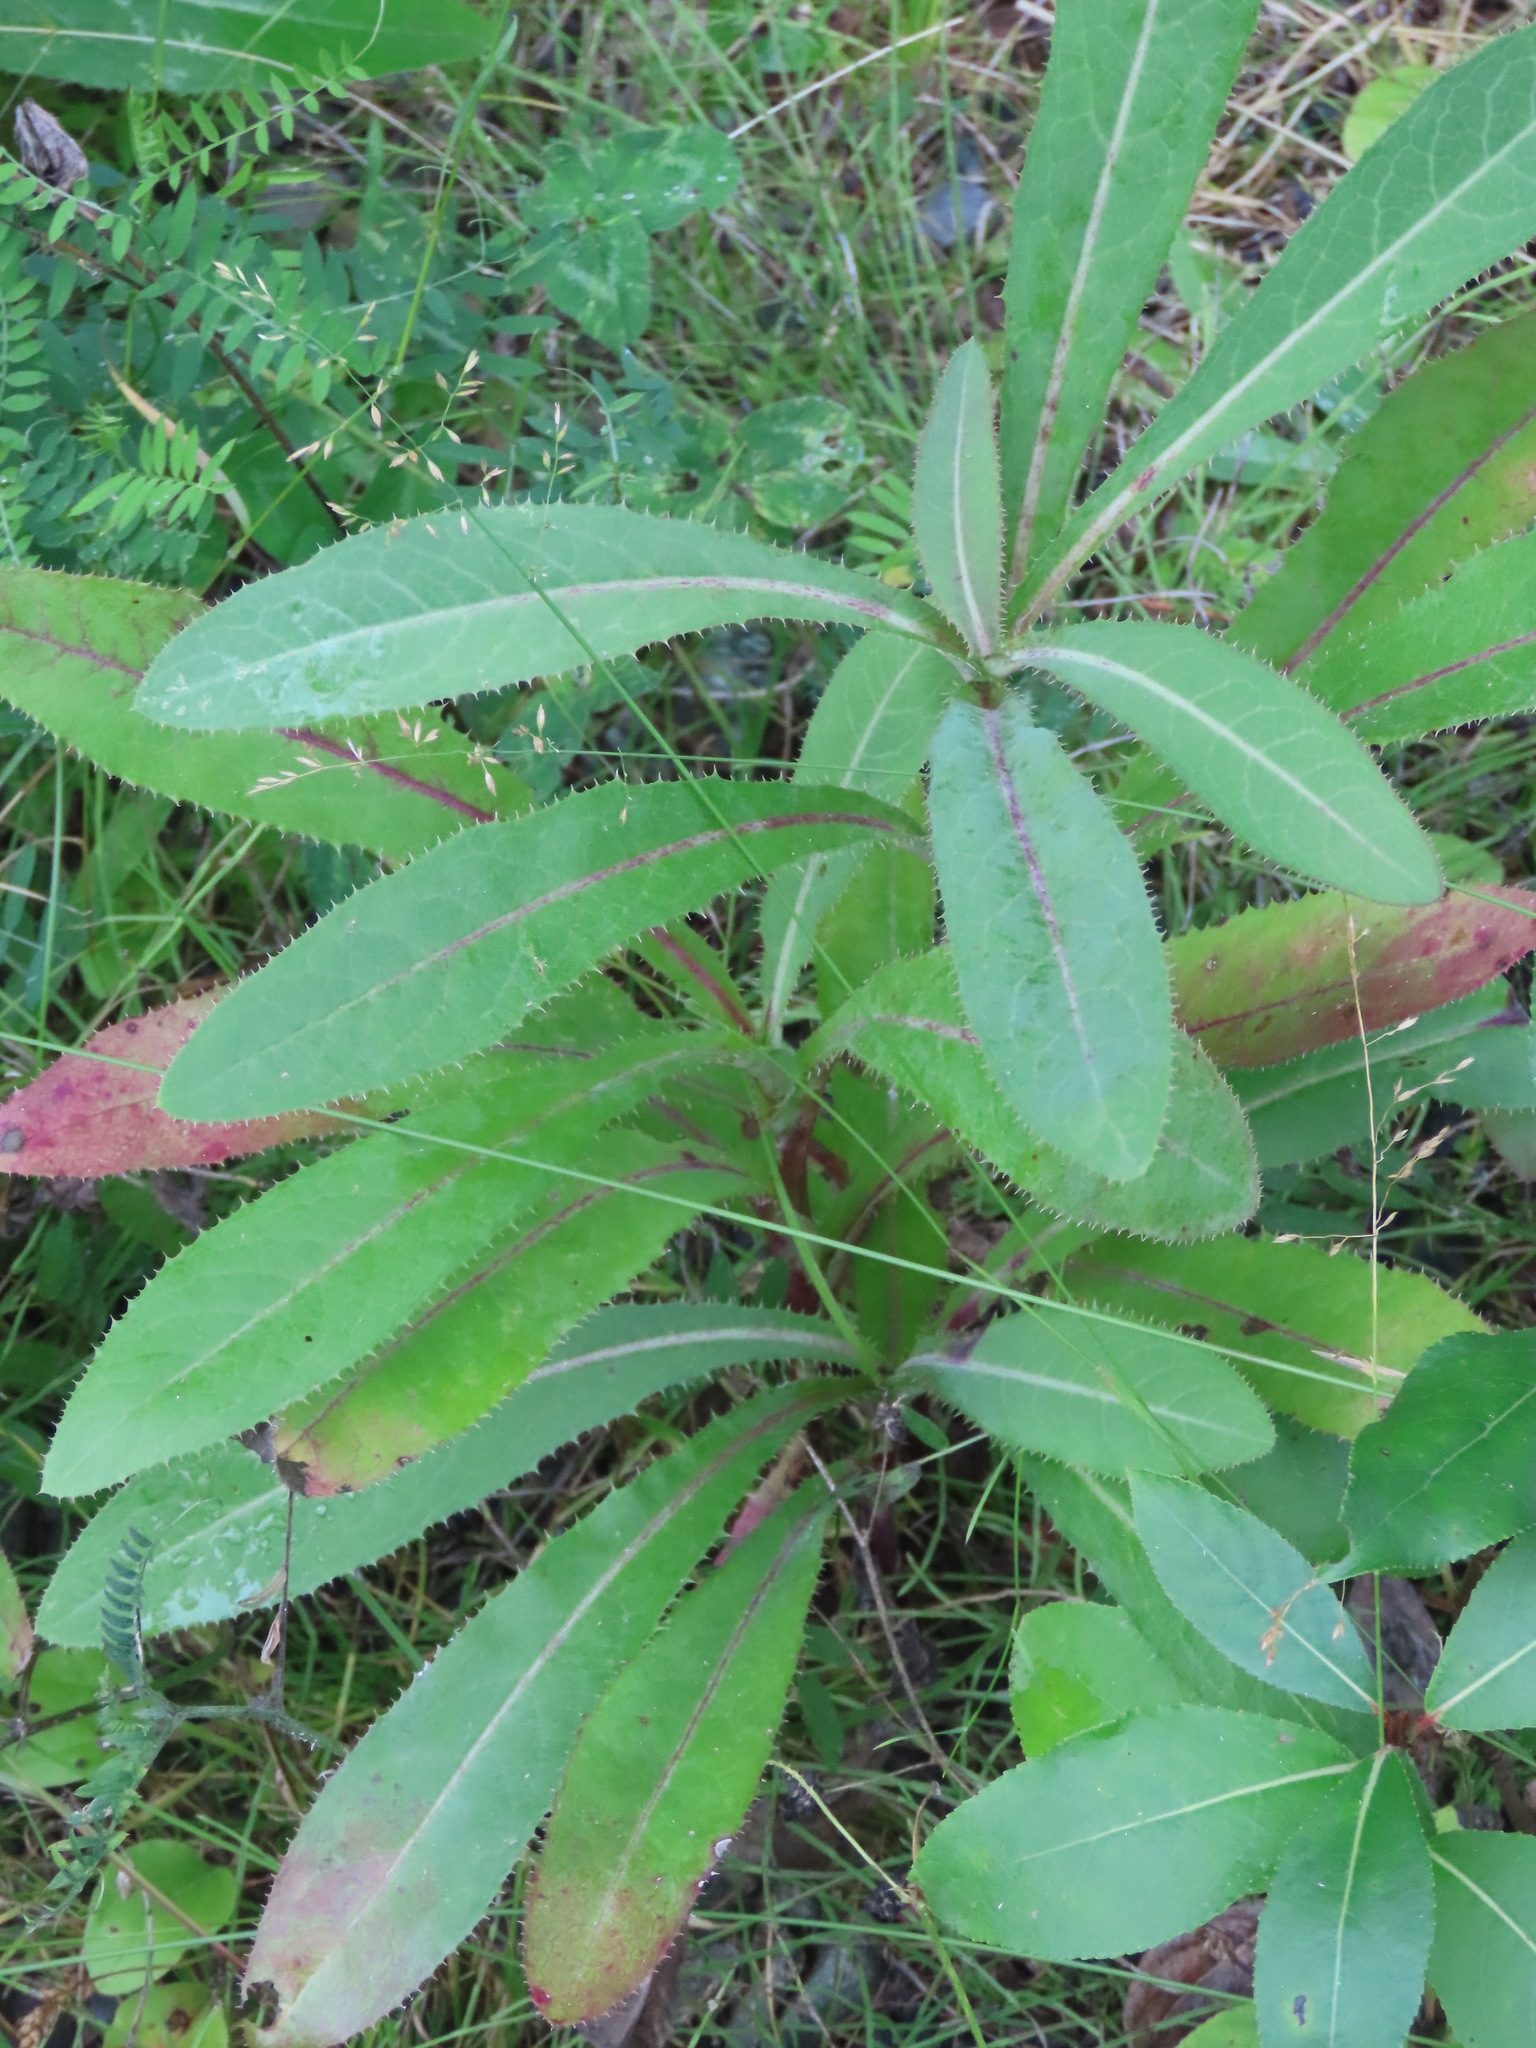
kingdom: Plantae
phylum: Tracheophyta
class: Magnoliopsida
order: Asterales
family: Asteraceae
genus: Sonchus
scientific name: Sonchus arvensis
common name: Perennial sow-thistle
